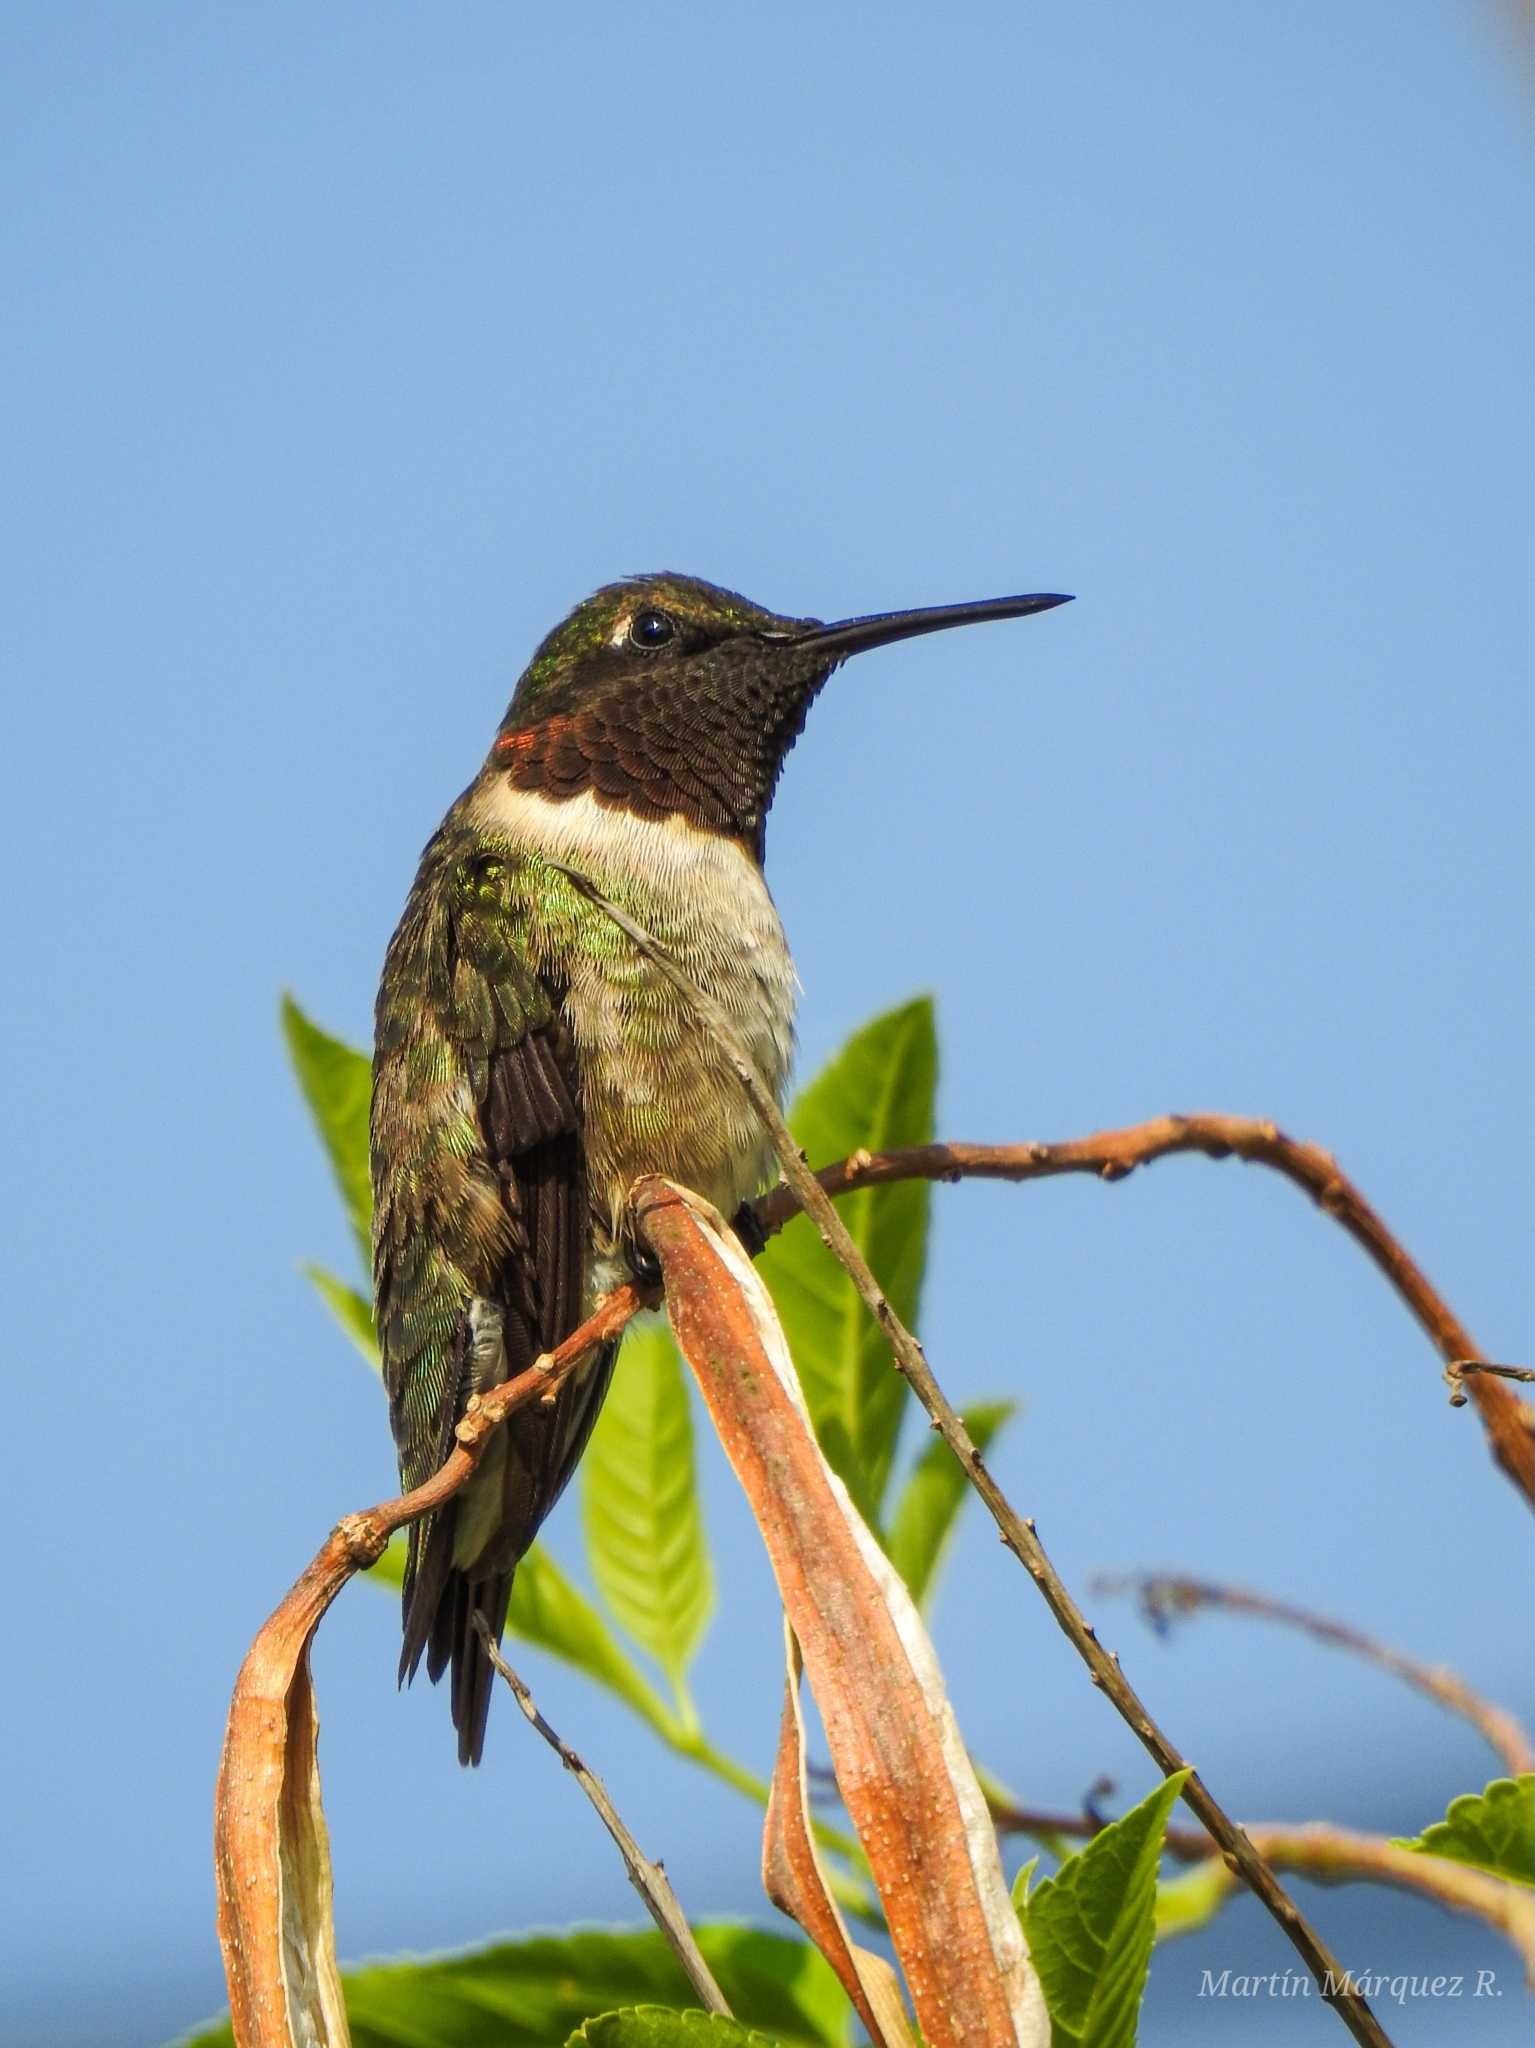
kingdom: Animalia
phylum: Chordata
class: Aves
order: Apodiformes
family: Trochilidae
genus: Archilochus
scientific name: Archilochus colubris
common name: Ruby-throated hummingbird
